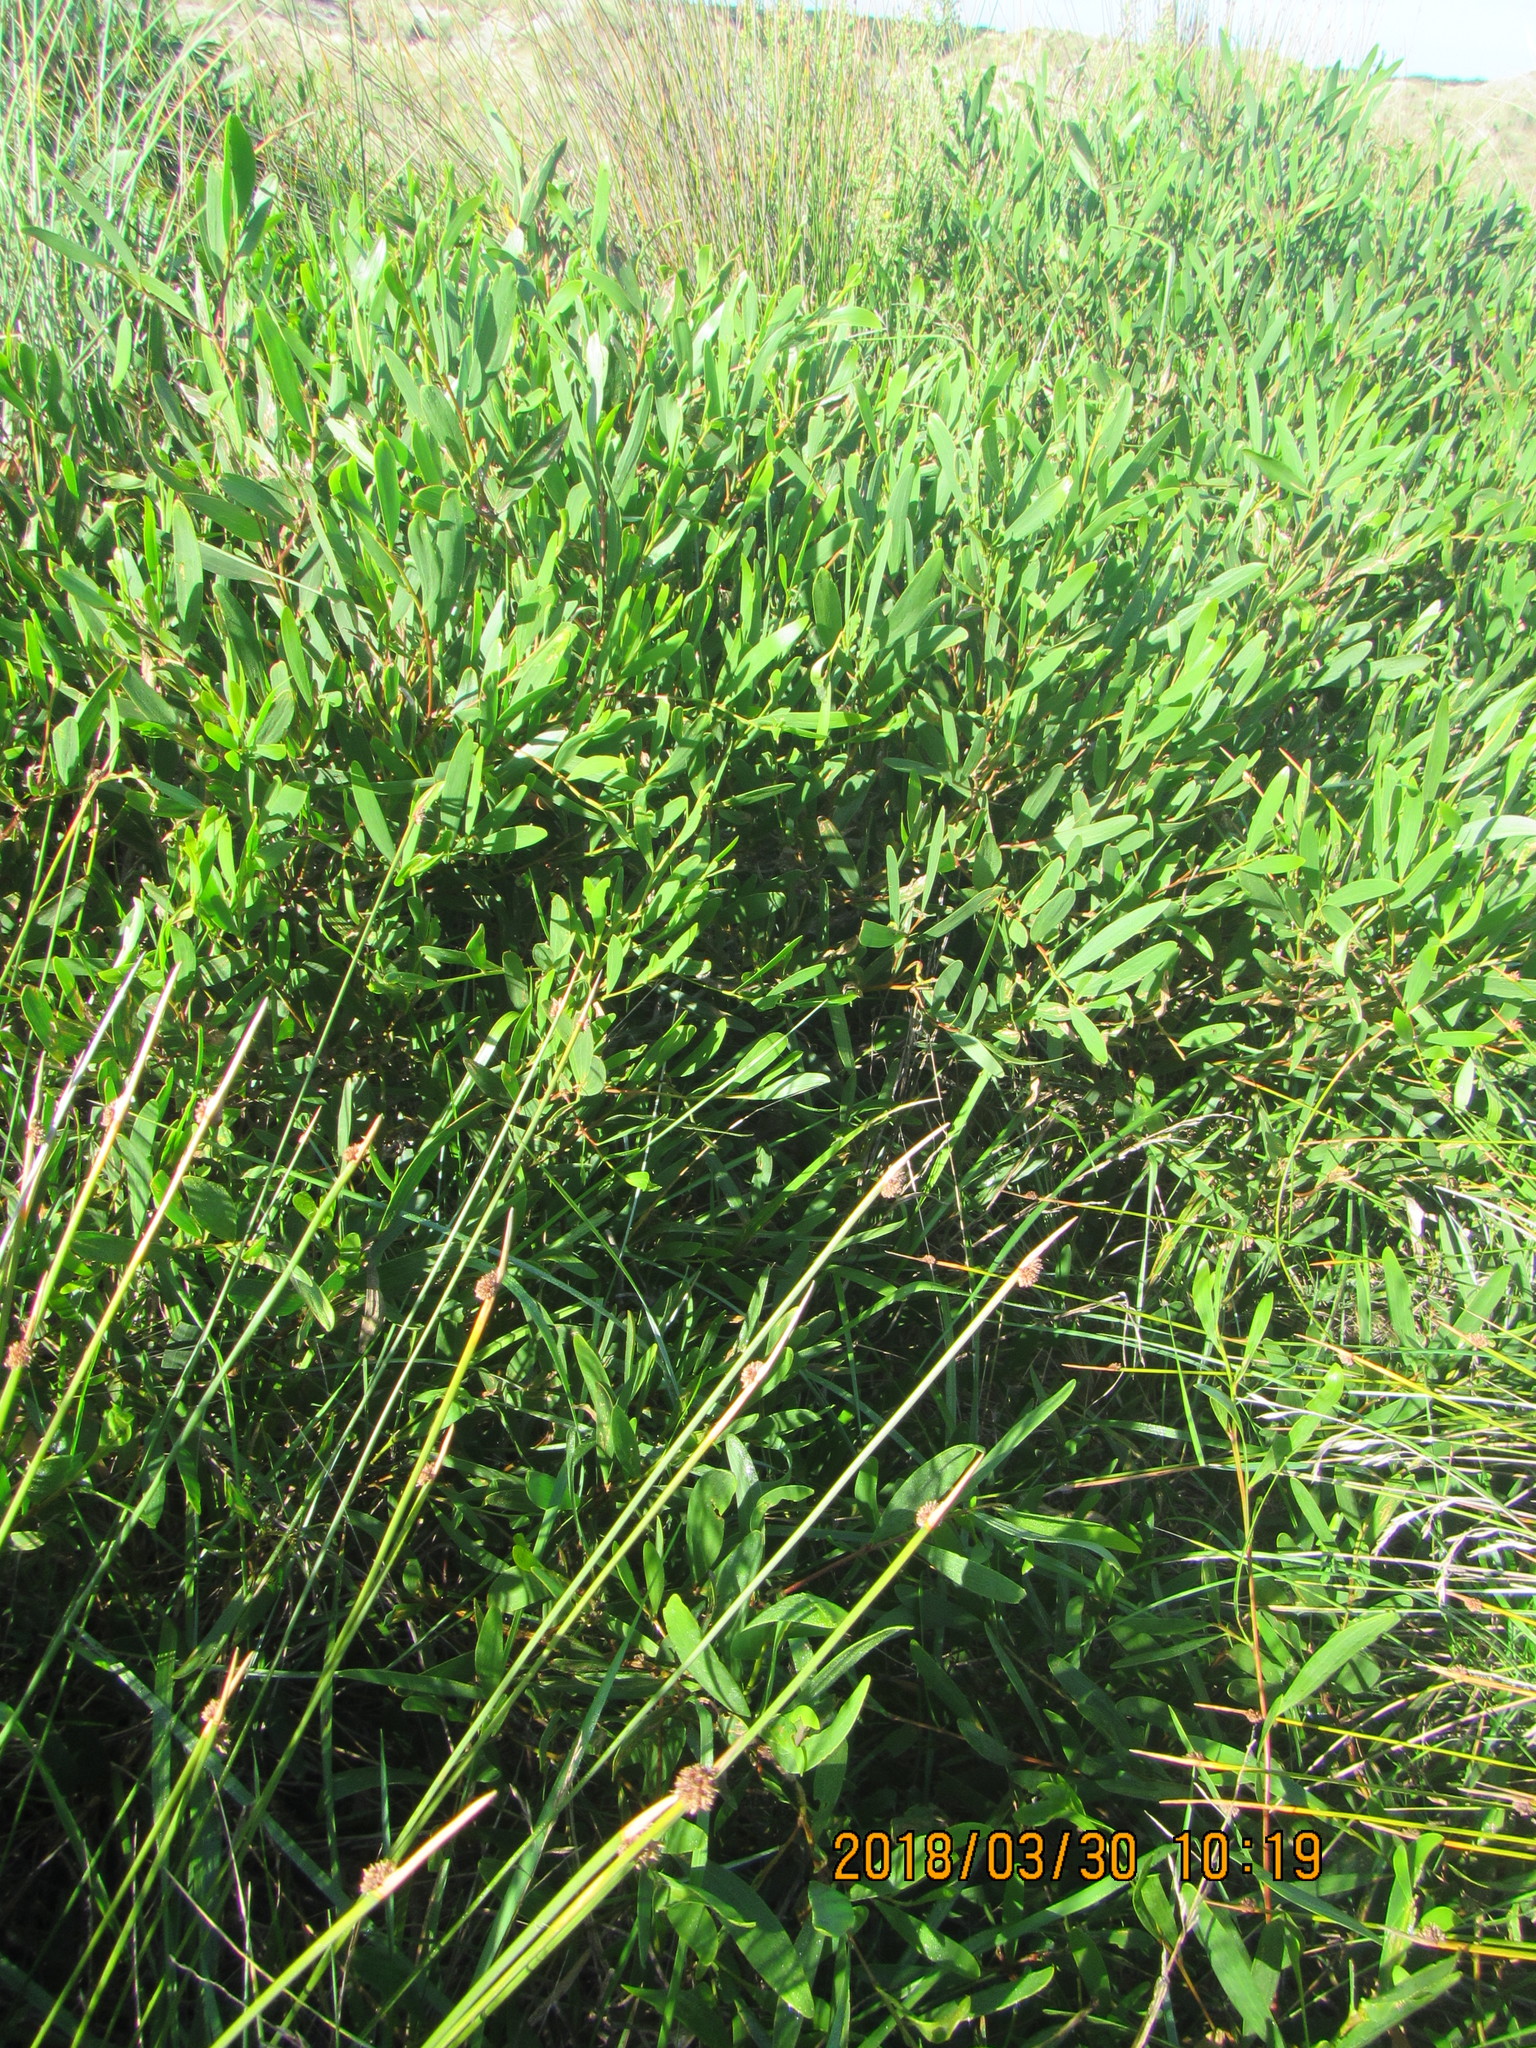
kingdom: Plantae
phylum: Tracheophyta
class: Magnoliopsida
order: Fabales
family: Fabaceae
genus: Acacia
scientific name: Acacia longifolia
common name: Sydney golden wattle
